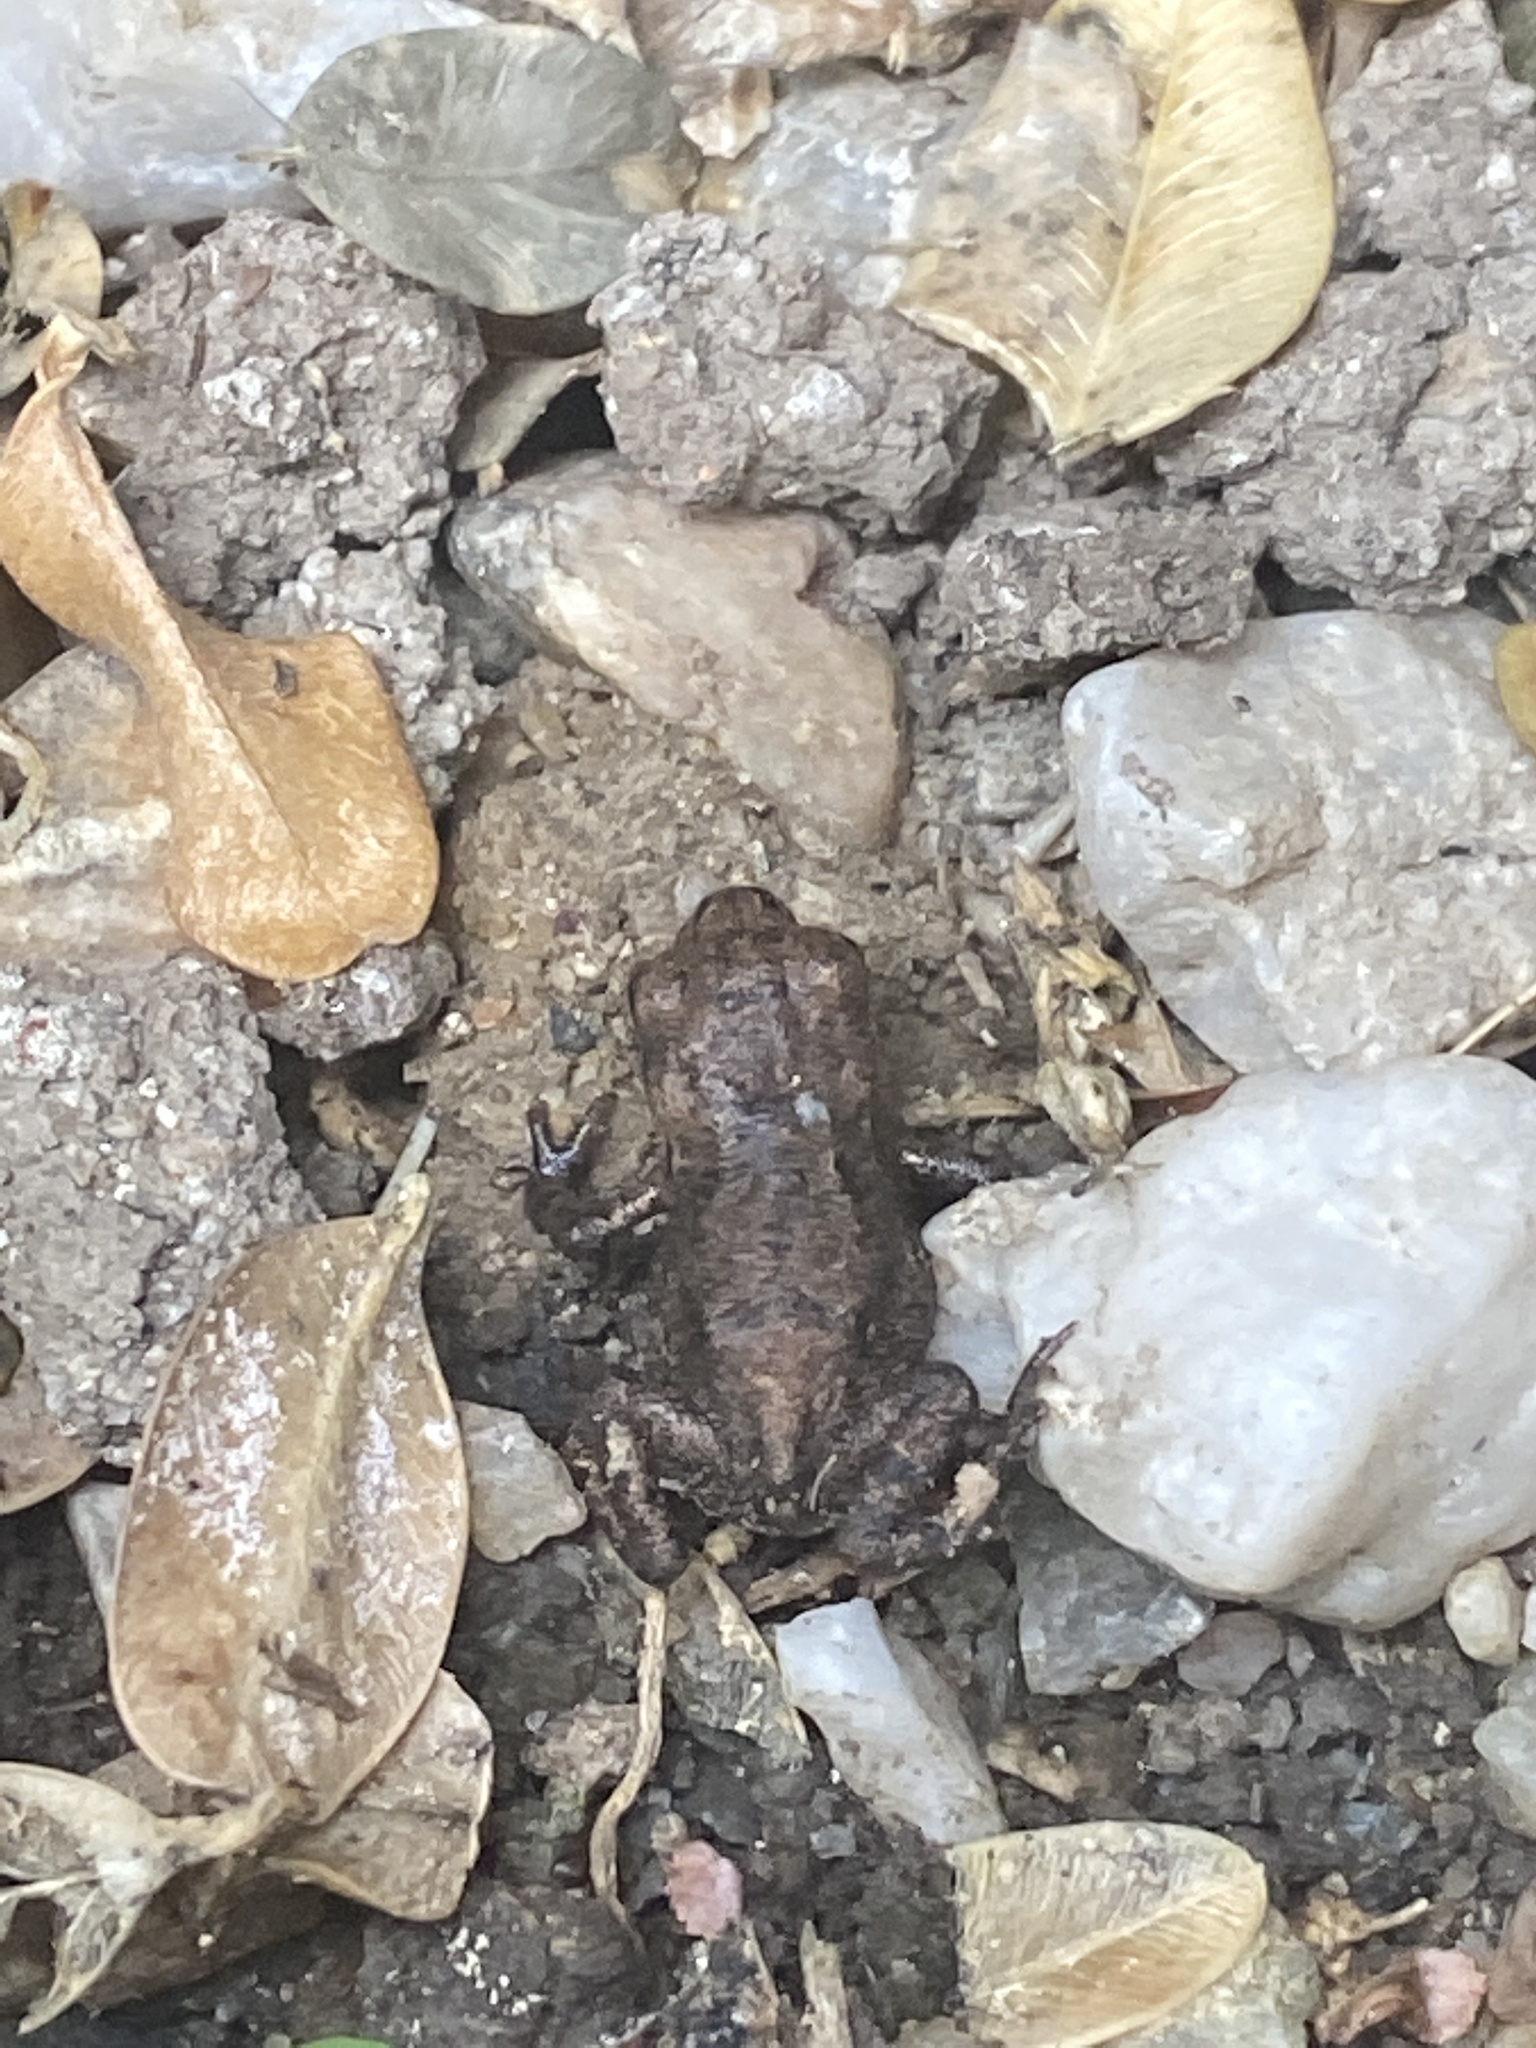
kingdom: Animalia
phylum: Chordata
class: Amphibia
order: Anura
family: Bufonidae
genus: Bufo
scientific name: Bufo bufo
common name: Common toad
